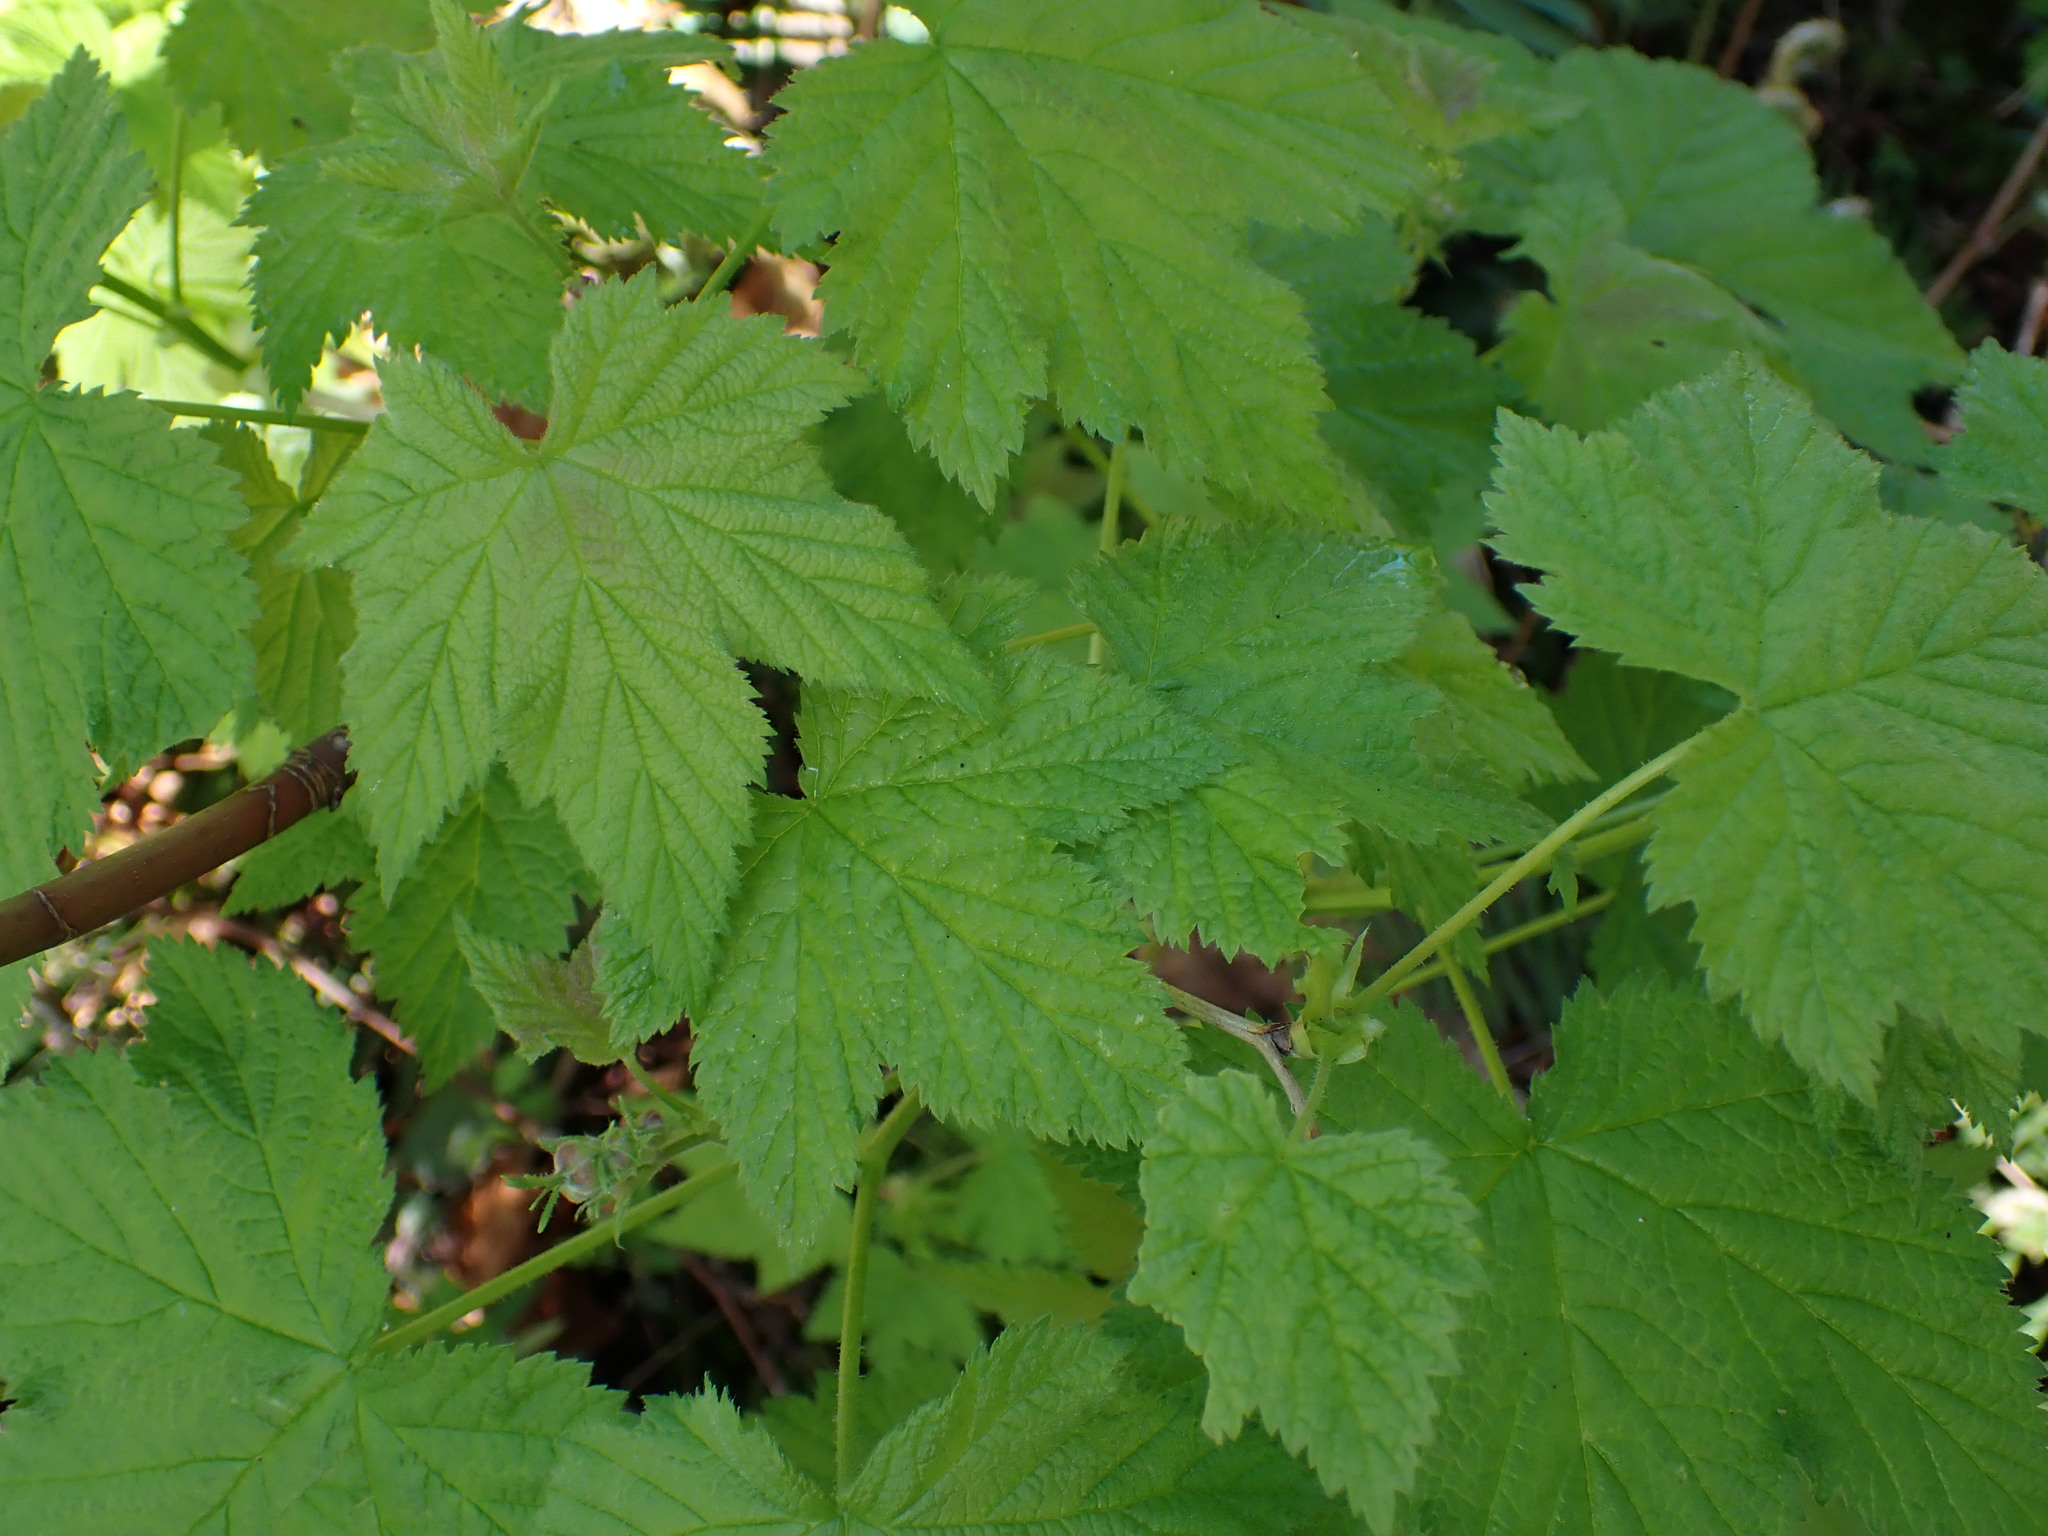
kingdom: Plantae
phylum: Tracheophyta
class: Magnoliopsida
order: Rosales
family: Rosaceae
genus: Rubus
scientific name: Rubus parviflorus
